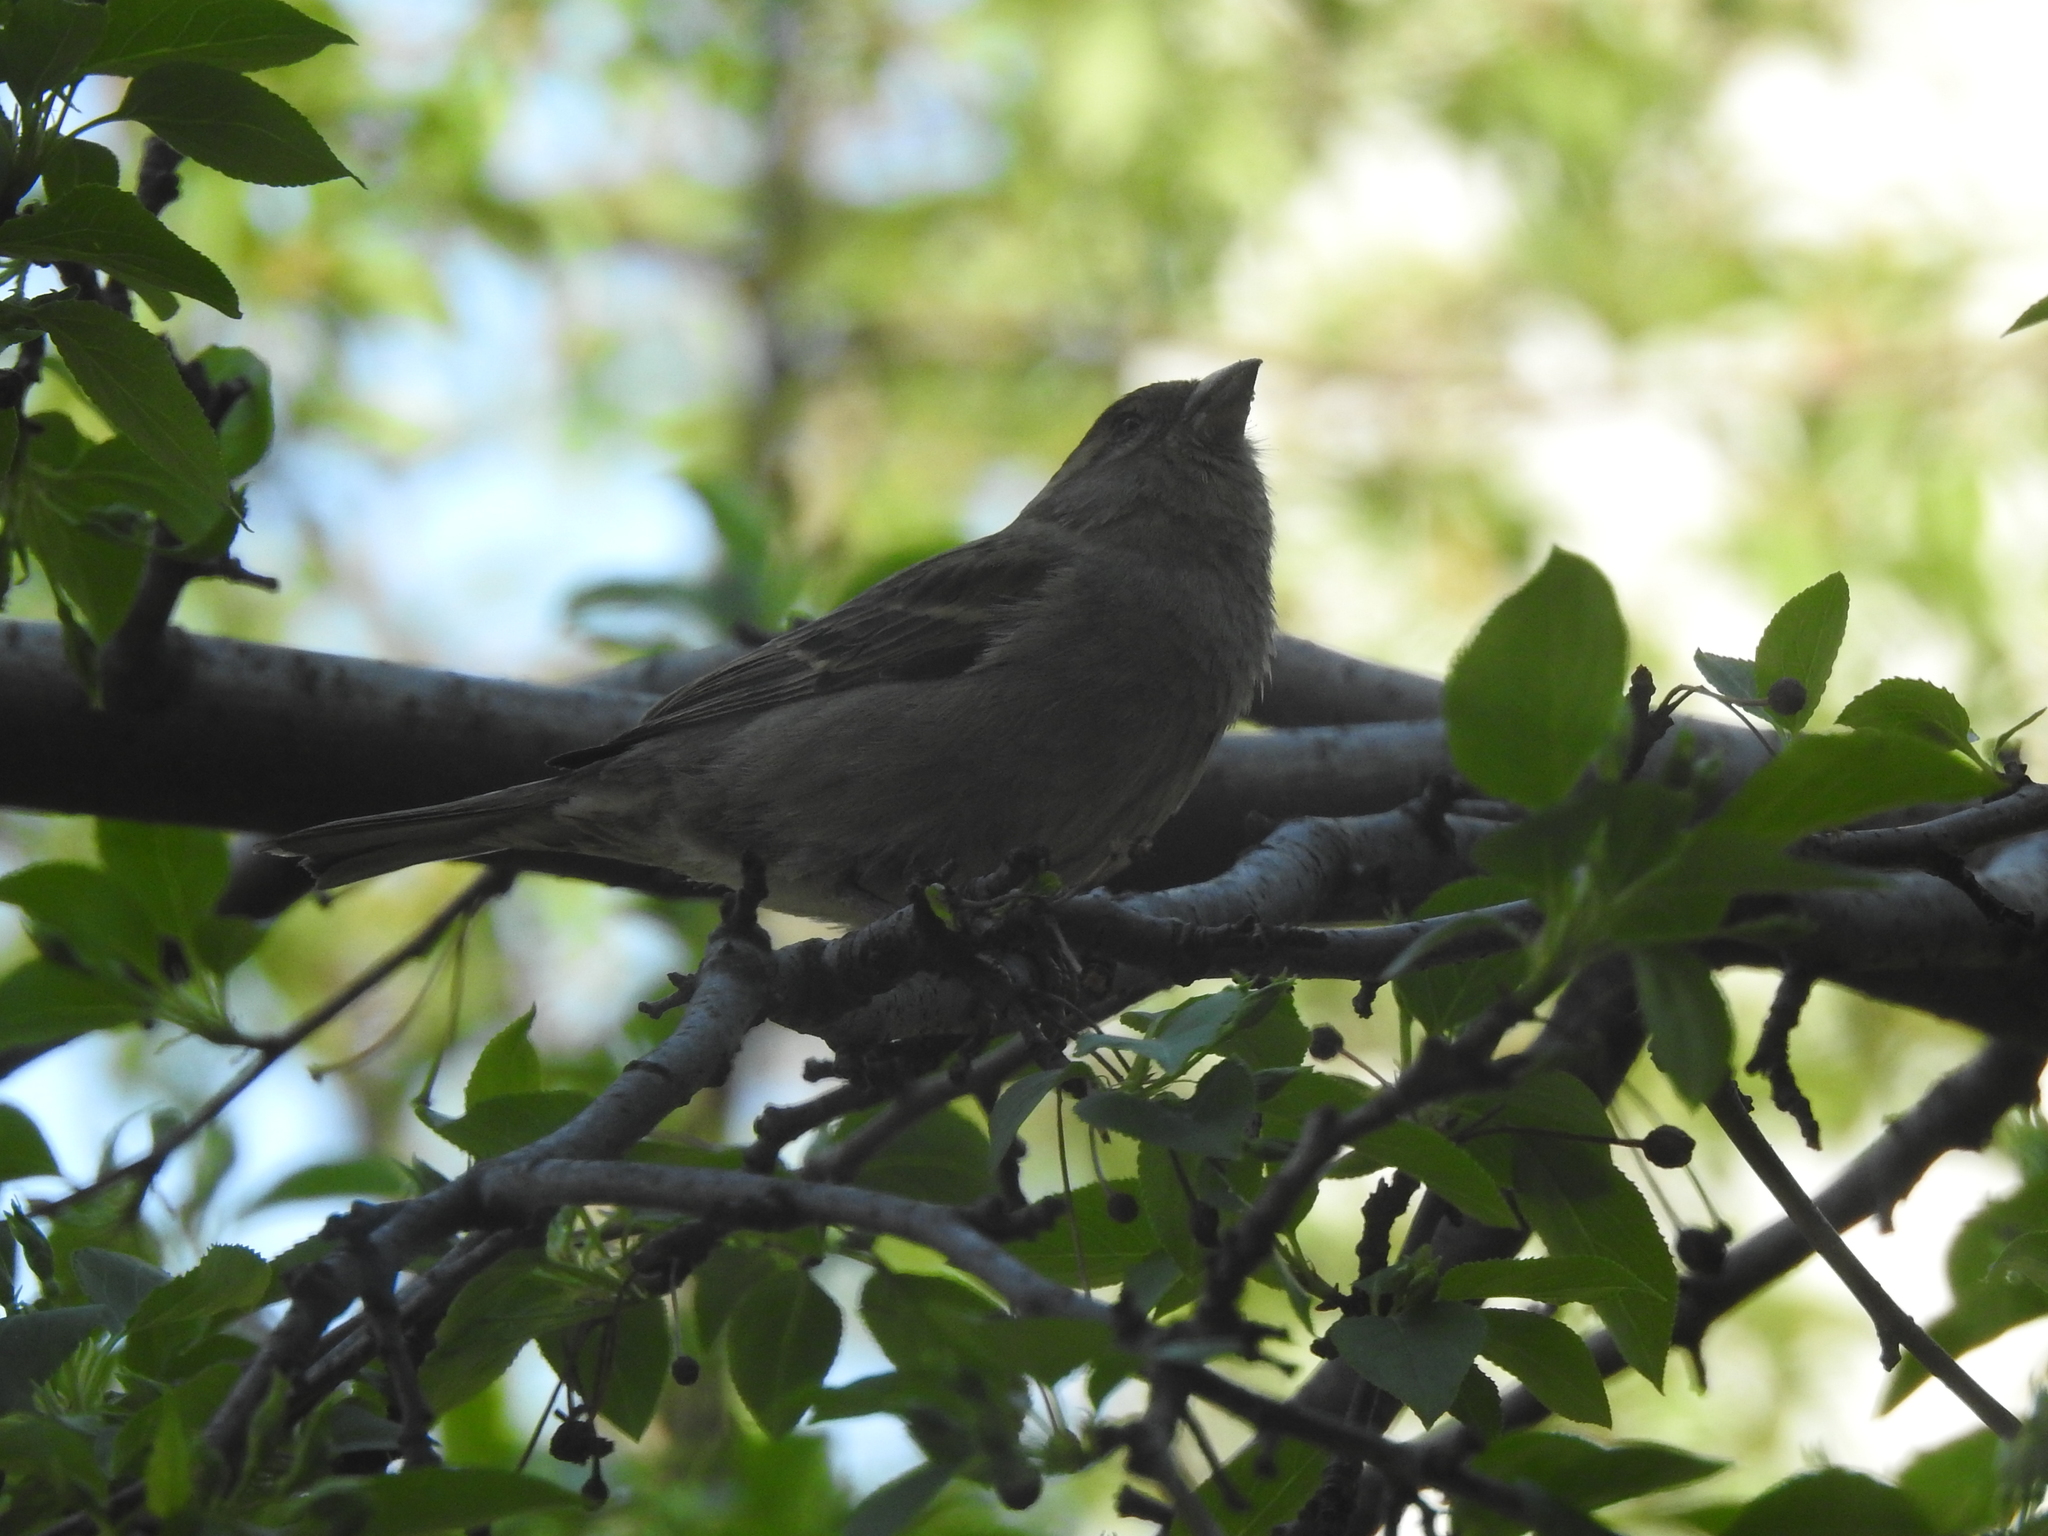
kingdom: Animalia
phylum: Chordata
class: Aves
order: Passeriformes
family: Fringillidae
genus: Fringilla
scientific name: Fringilla coelebs
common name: Common chaffinch
